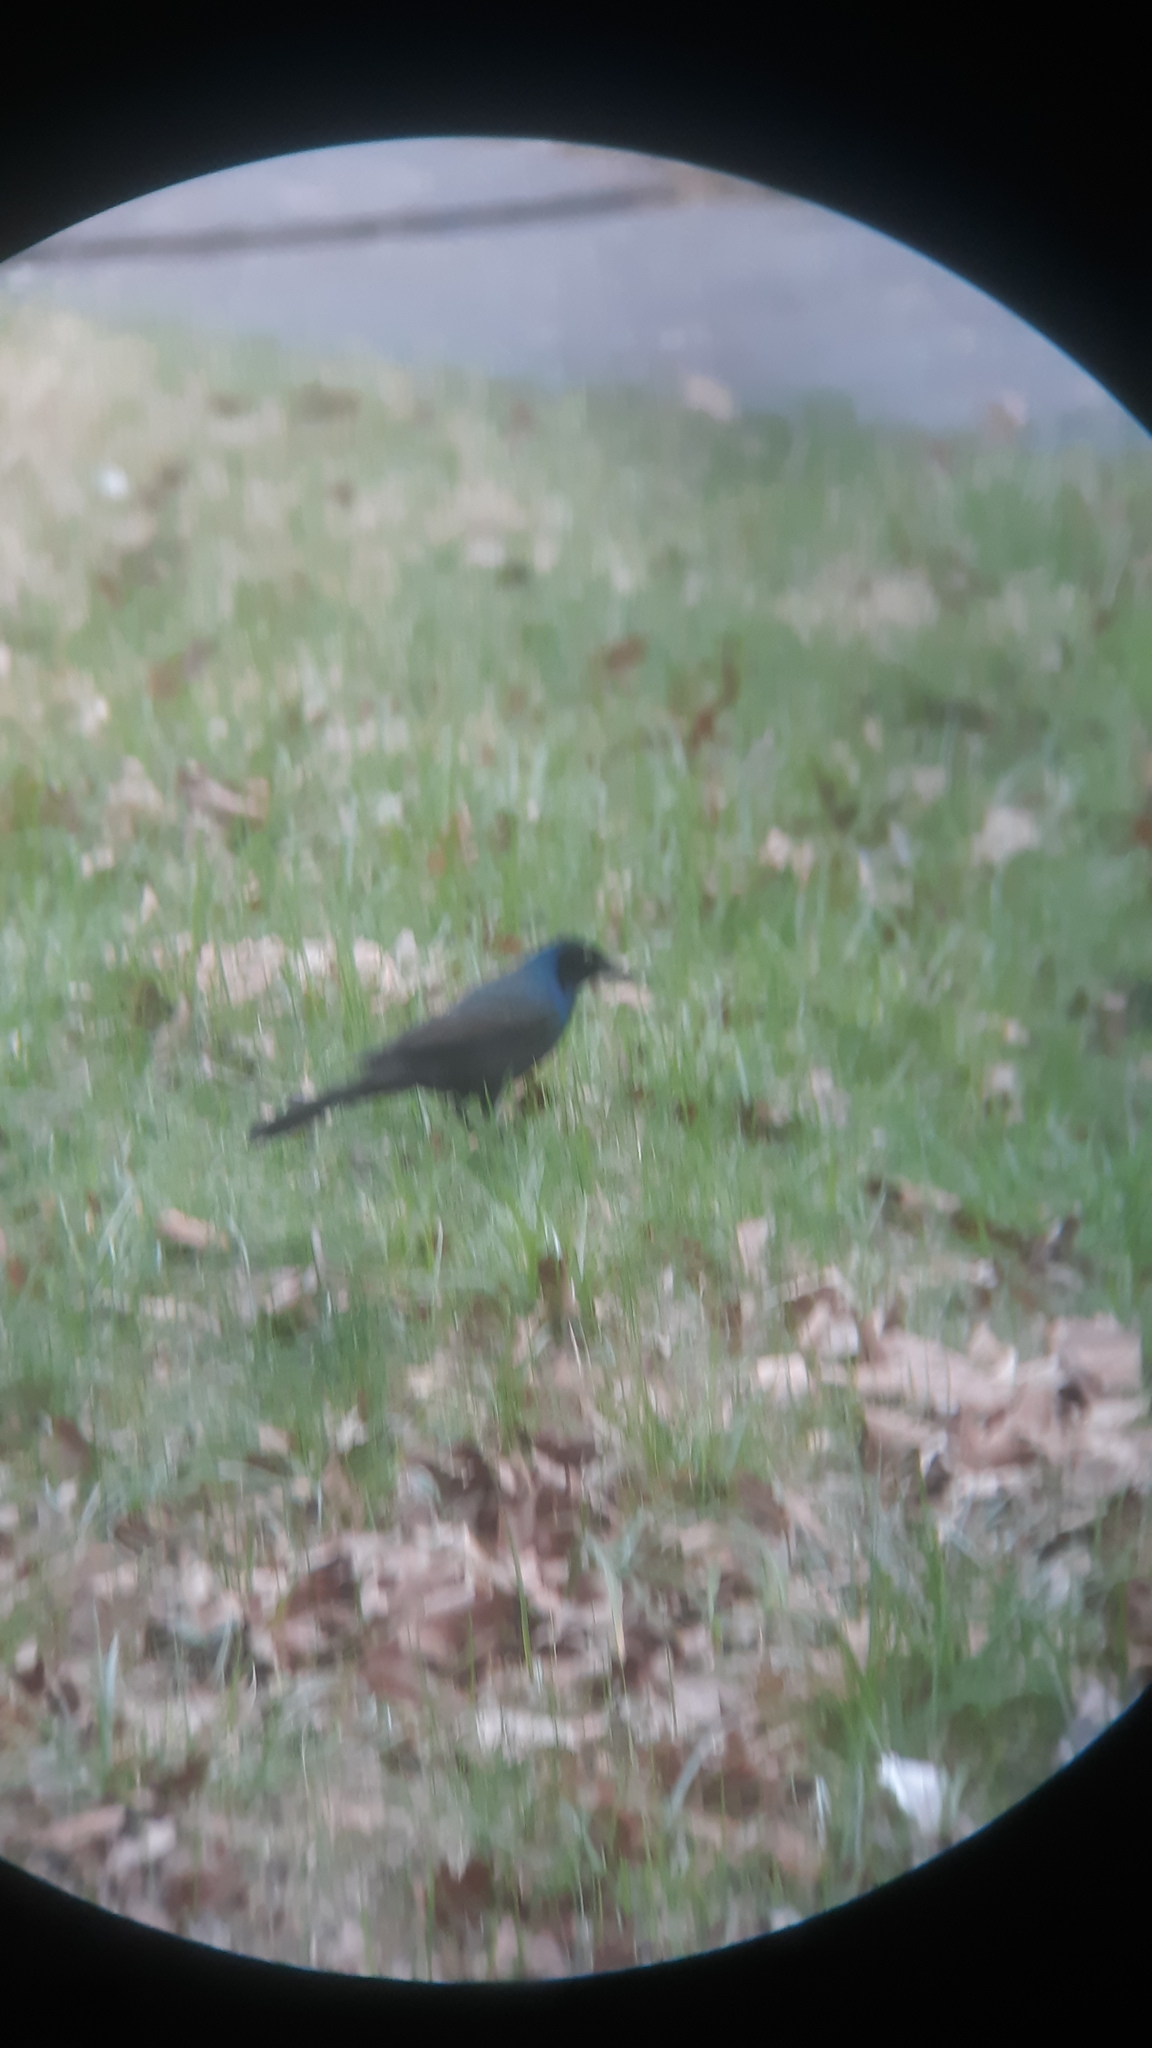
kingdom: Animalia
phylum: Chordata
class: Aves
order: Passeriformes
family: Icteridae
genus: Quiscalus
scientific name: Quiscalus quiscula
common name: Common grackle
